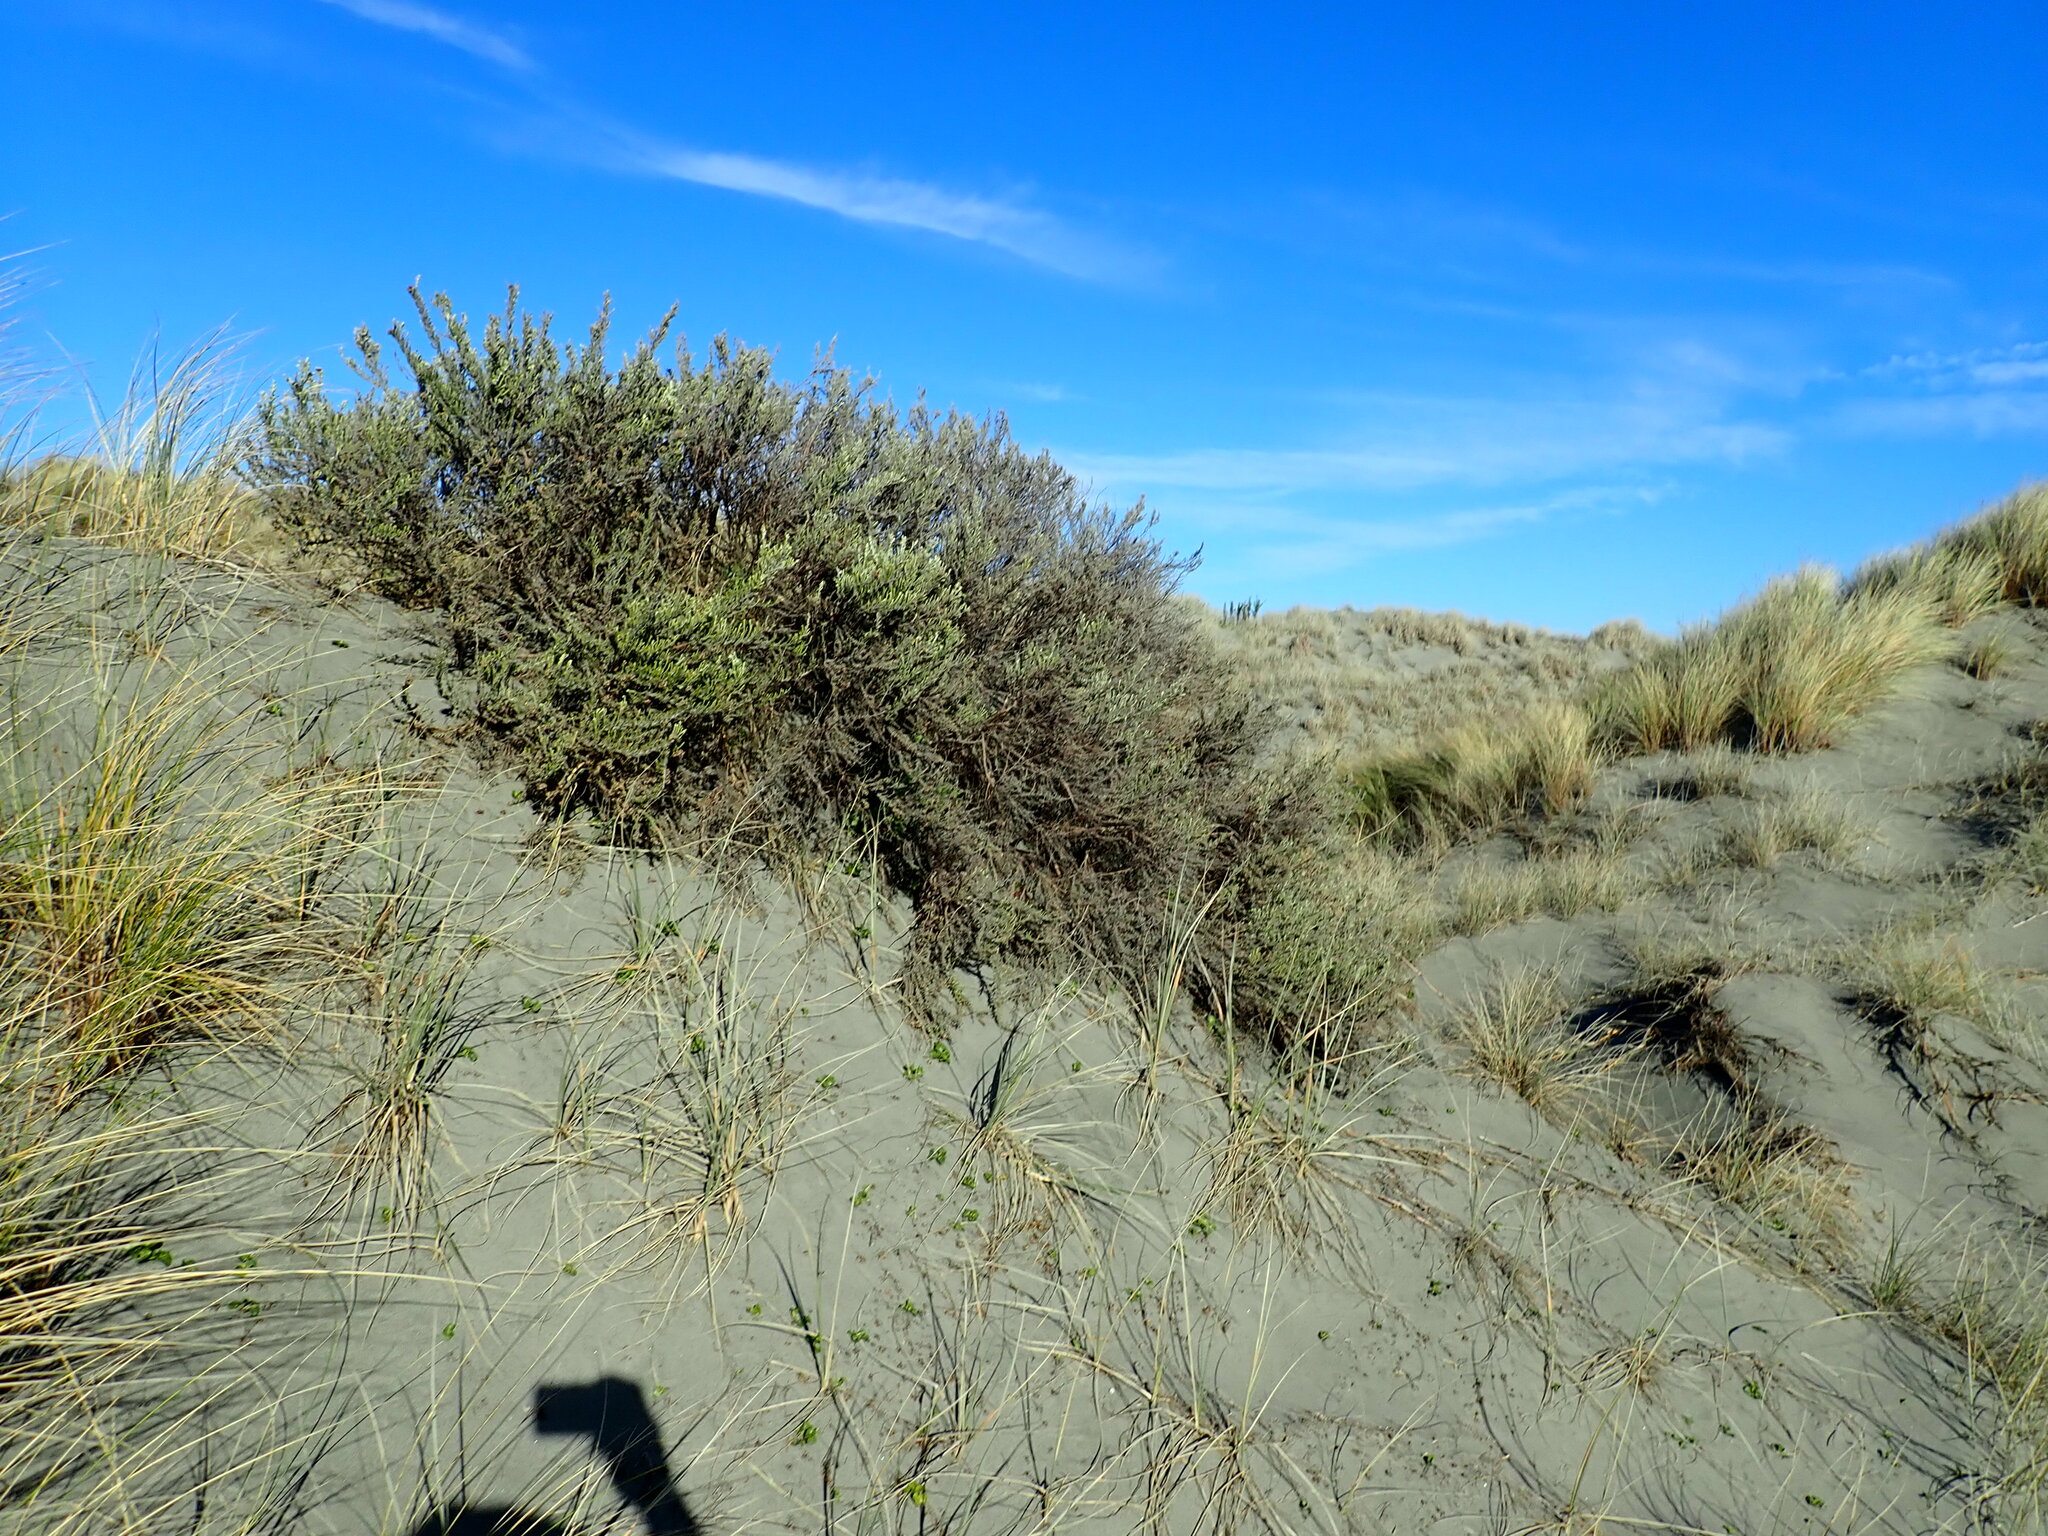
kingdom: Plantae
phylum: Tracheophyta
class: Magnoliopsida
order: Asterales
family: Asteraceae
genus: Ozothamnus
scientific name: Ozothamnus leptophyllus
